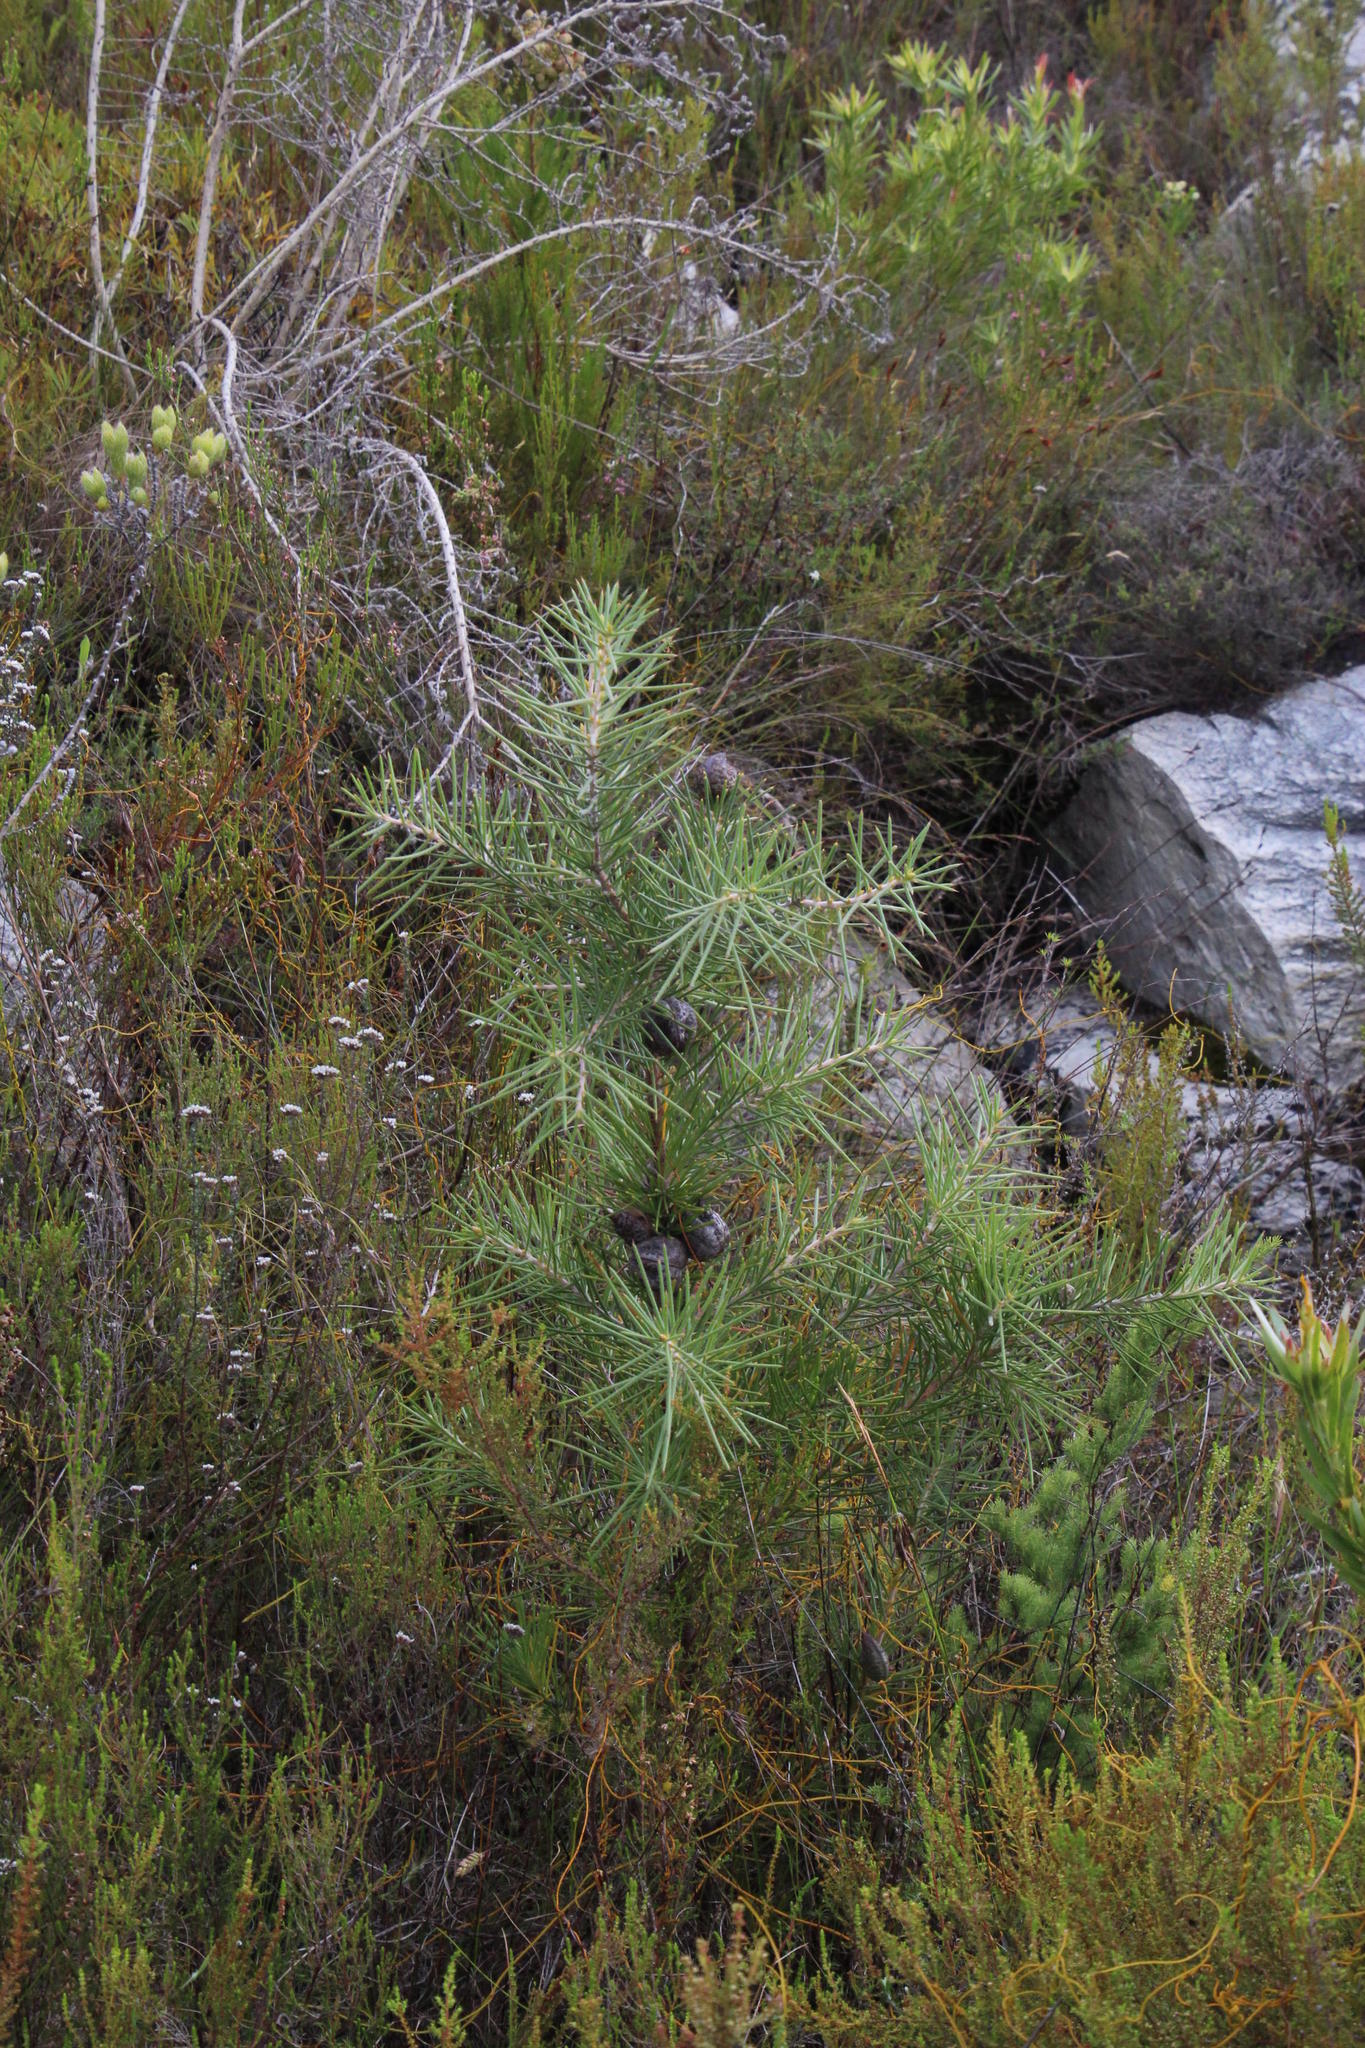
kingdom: Plantae
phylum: Tracheophyta
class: Magnoliopsida
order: Proteales
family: Proteaceae
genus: Hakea
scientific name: Hakea gibbosa
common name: Rock hakea
